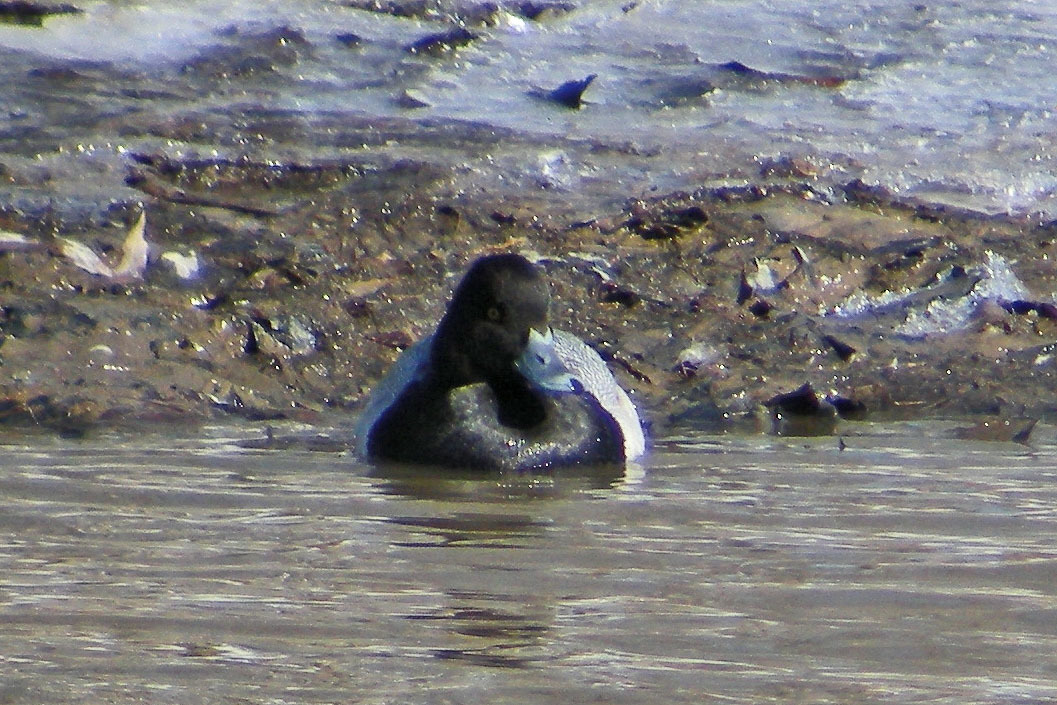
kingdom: Animalia
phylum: Chordata
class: Aves
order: Anseriformes
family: Anatidae
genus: Aythya
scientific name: Aythya affinis
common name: Lesser scaup
